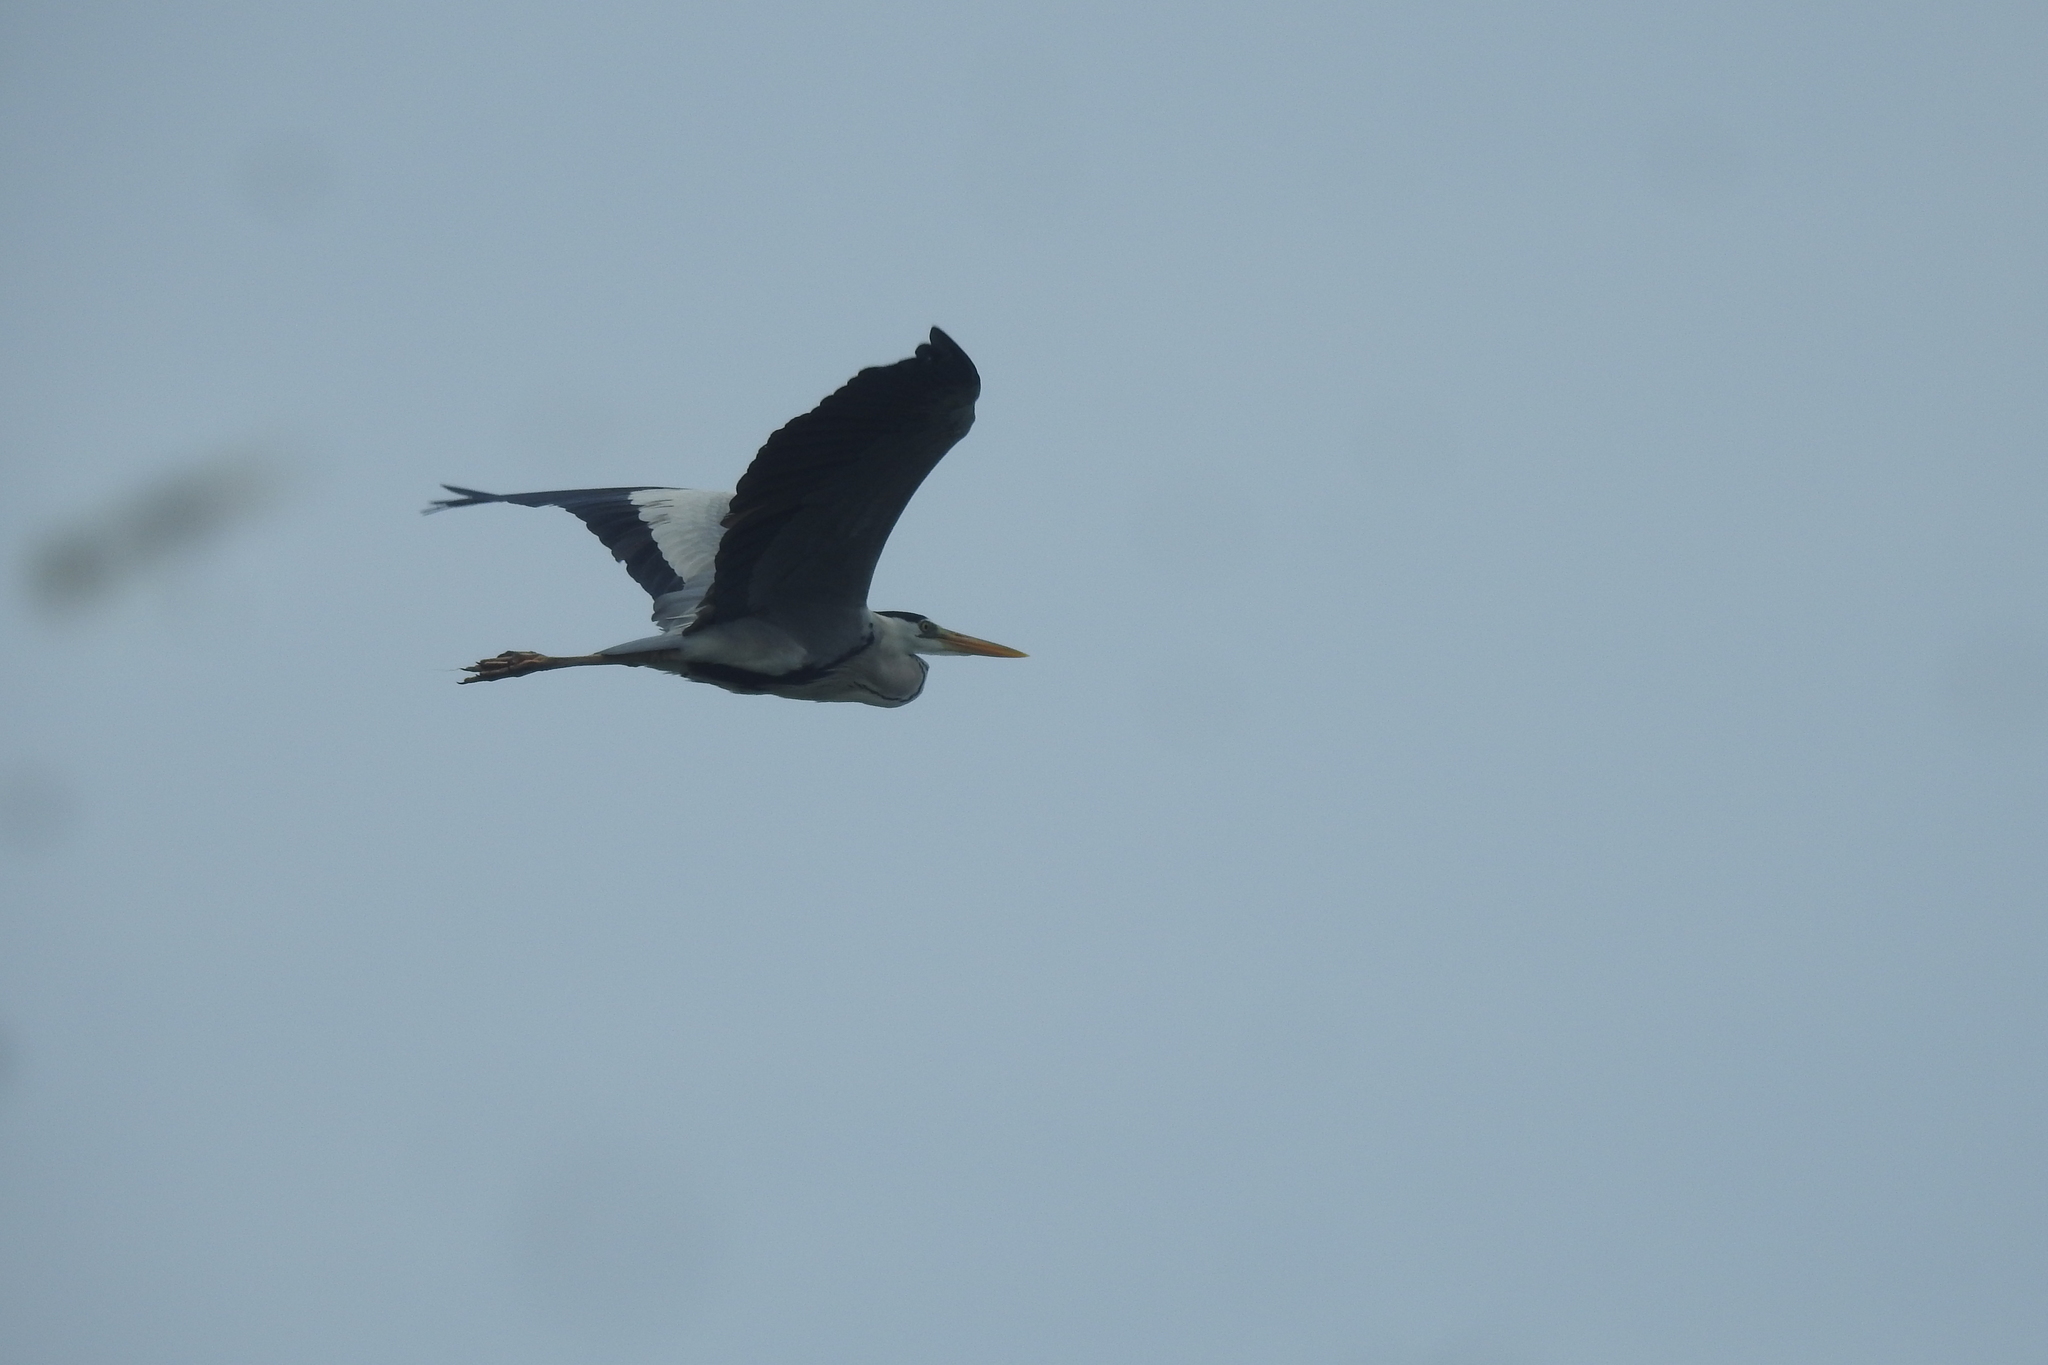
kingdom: Animalia
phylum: Chordata
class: Aves
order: Pelecaniformes
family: Ardeidae
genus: Ardea
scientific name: Ardea cinerea
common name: Grey heron
